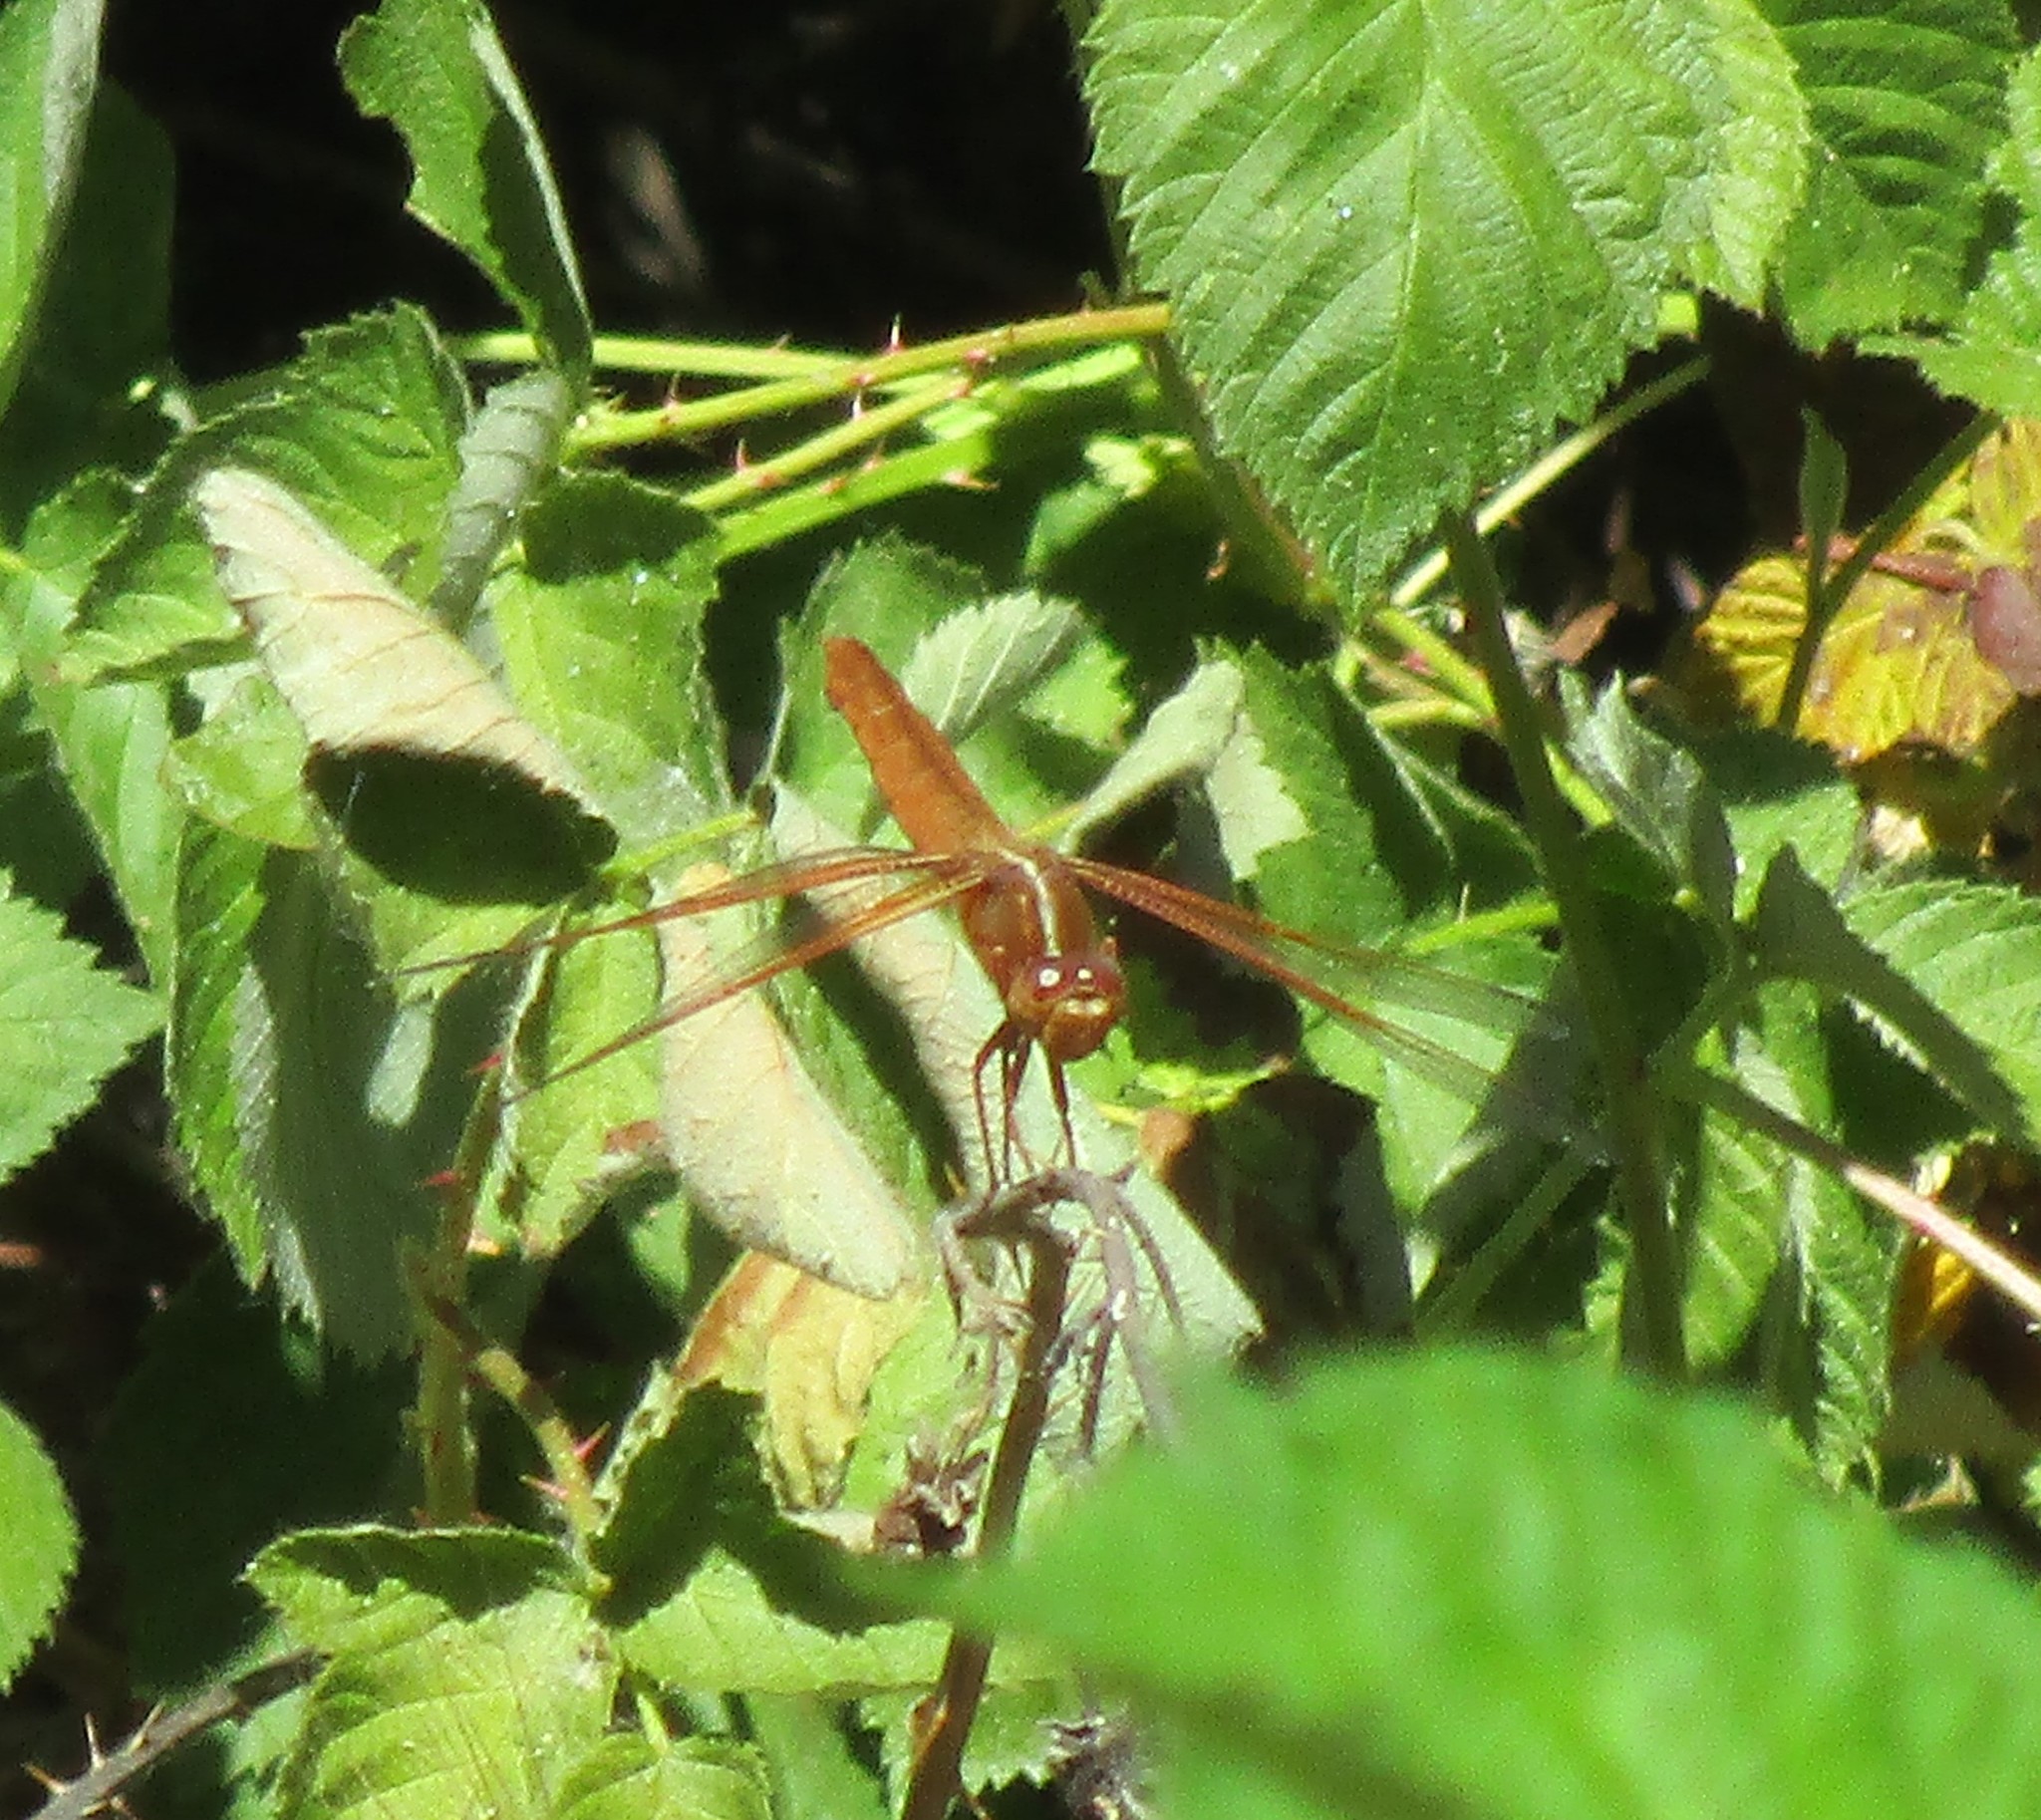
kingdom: Animalia
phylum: Arthropoda
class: Insecta
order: Odonata
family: Libellulidae
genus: Libellula
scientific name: Libellula saturata
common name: Flame skimmer
